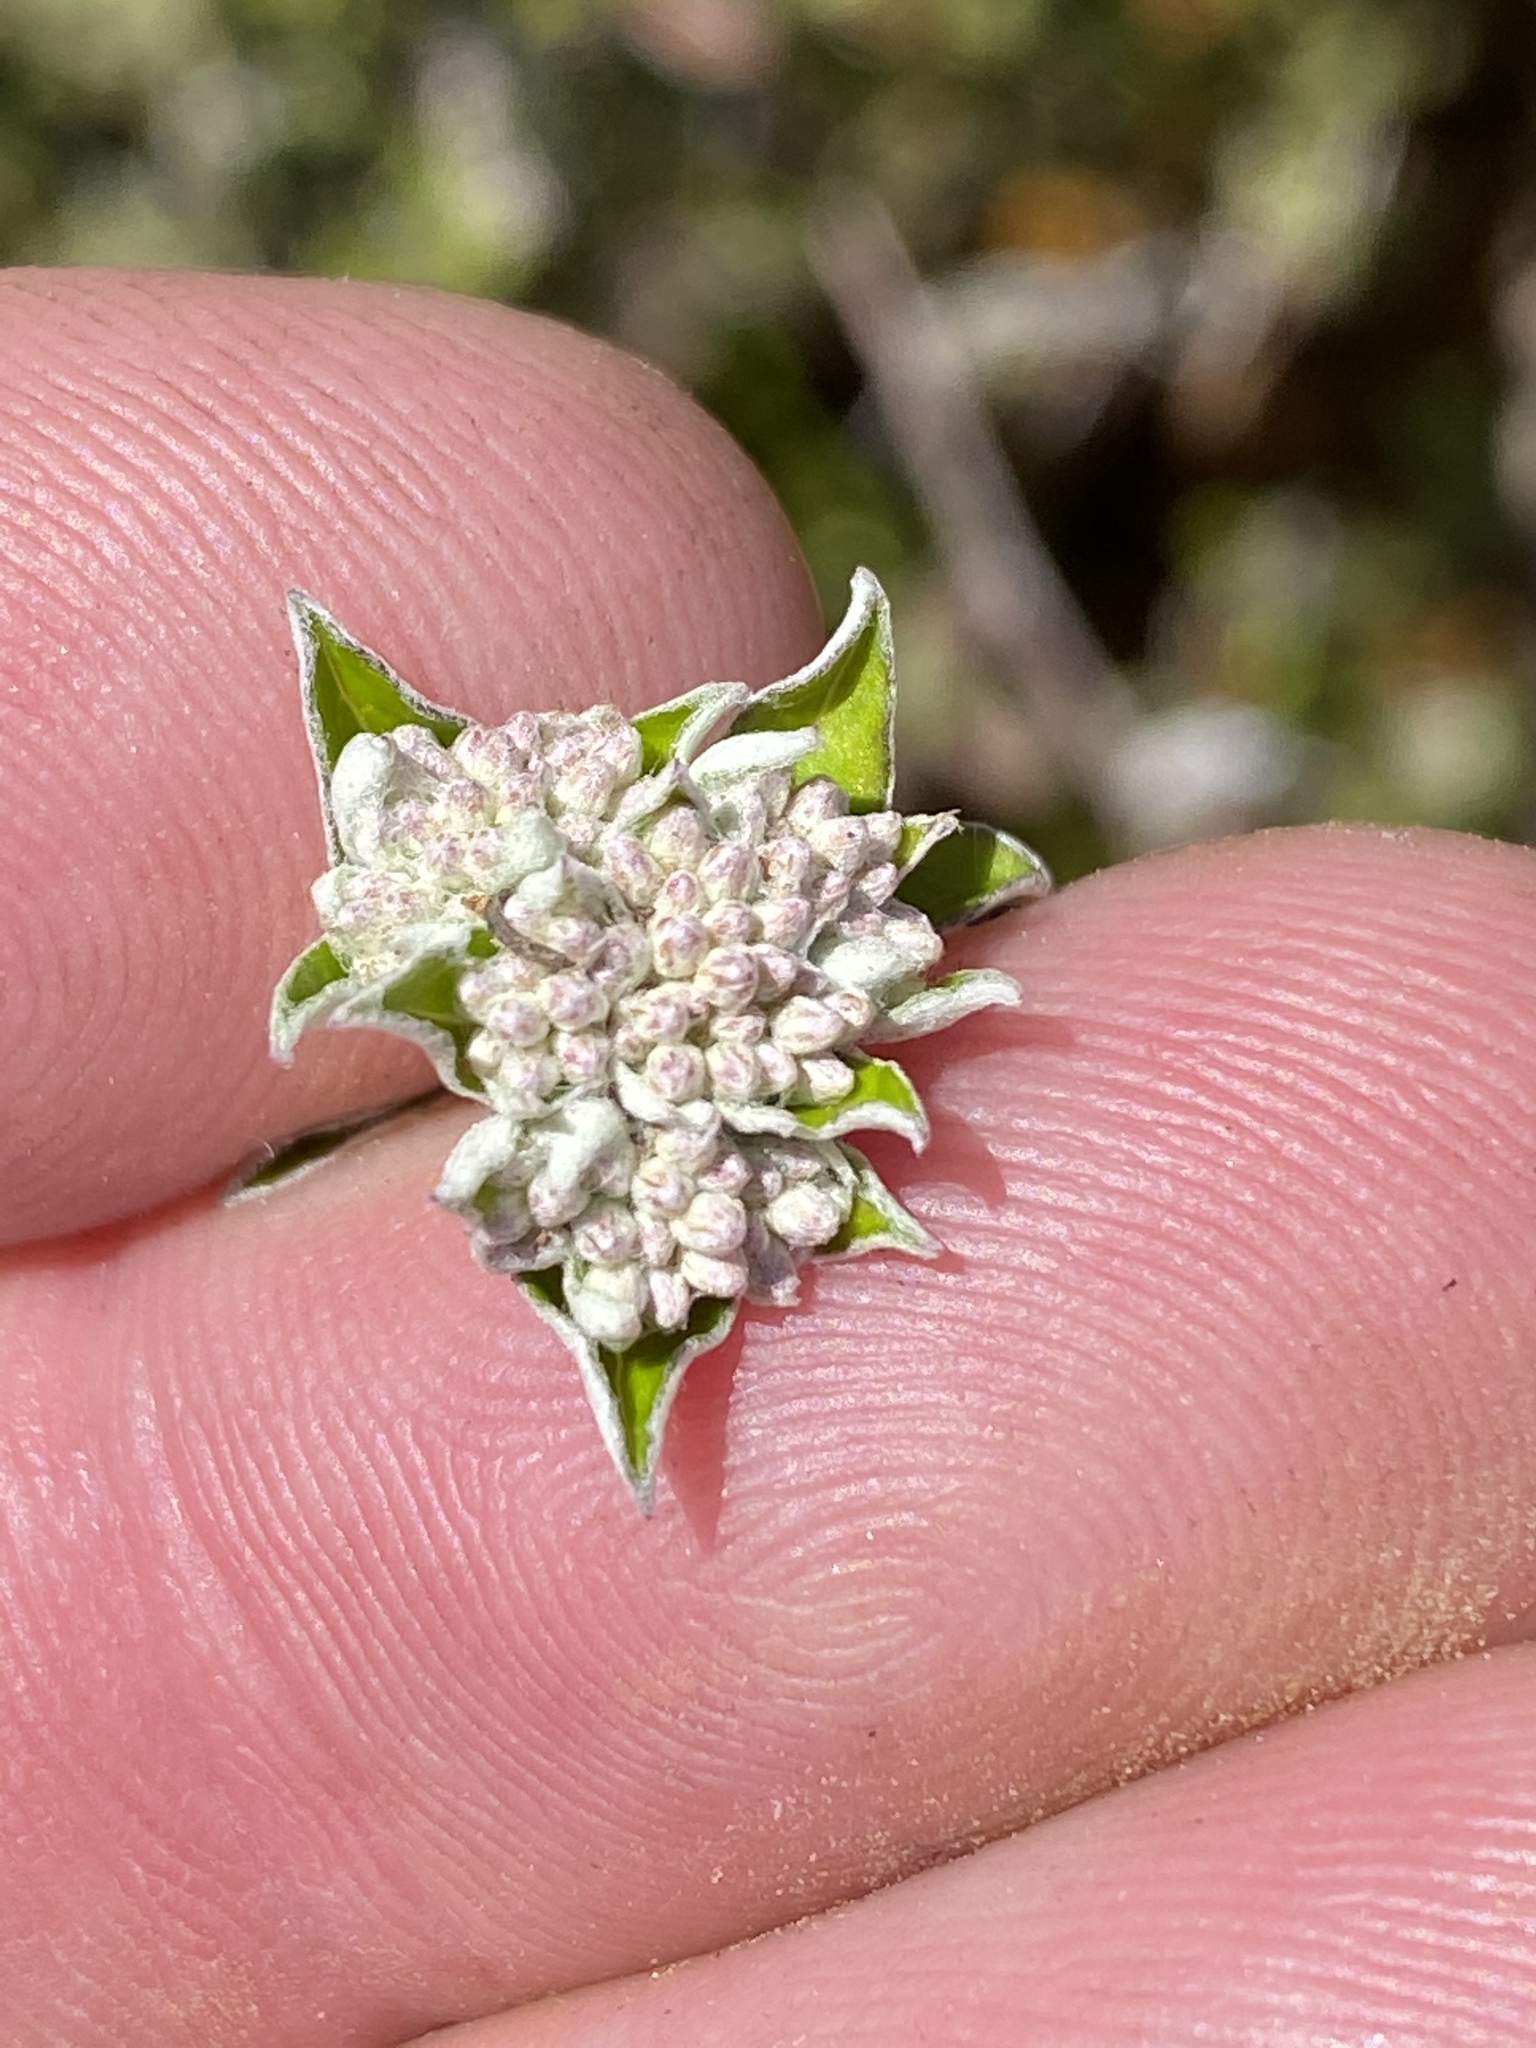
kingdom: Plantae
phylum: Tracheophyta
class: Magnoliopsida
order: Asterales
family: Asteraceae
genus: Plecostachys
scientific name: Plecostachys polifolia
